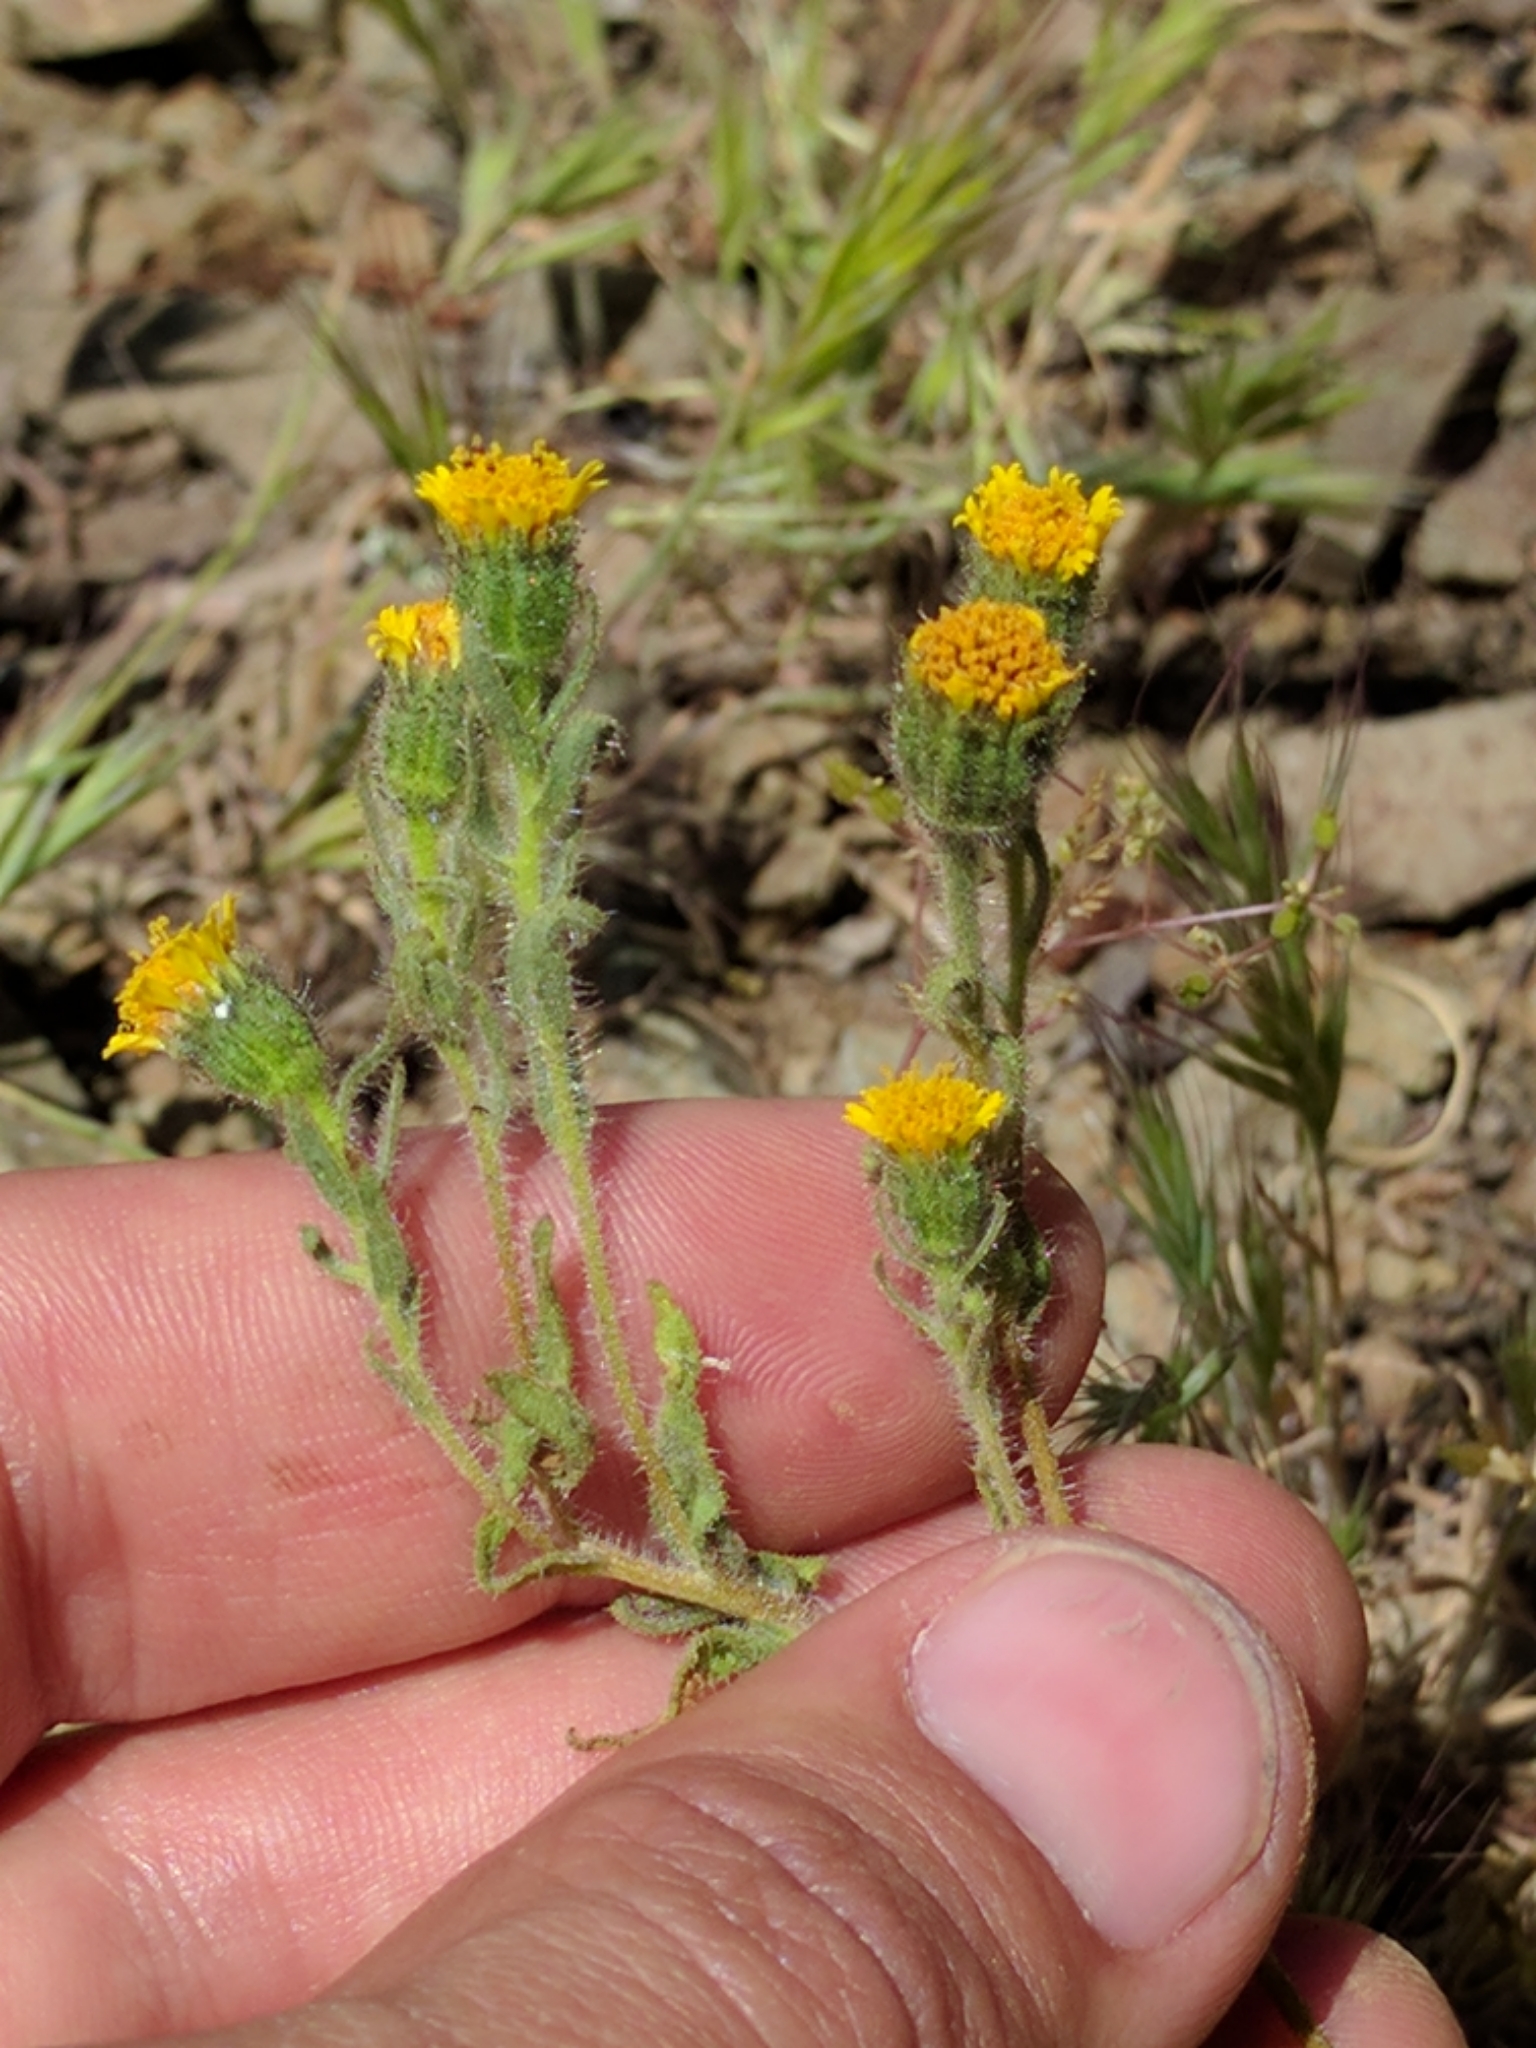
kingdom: Plantae
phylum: Tracheophyta
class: Magnoliopsida
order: Asterales
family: Asteraceae
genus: Layia
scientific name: Layia hieracioides
